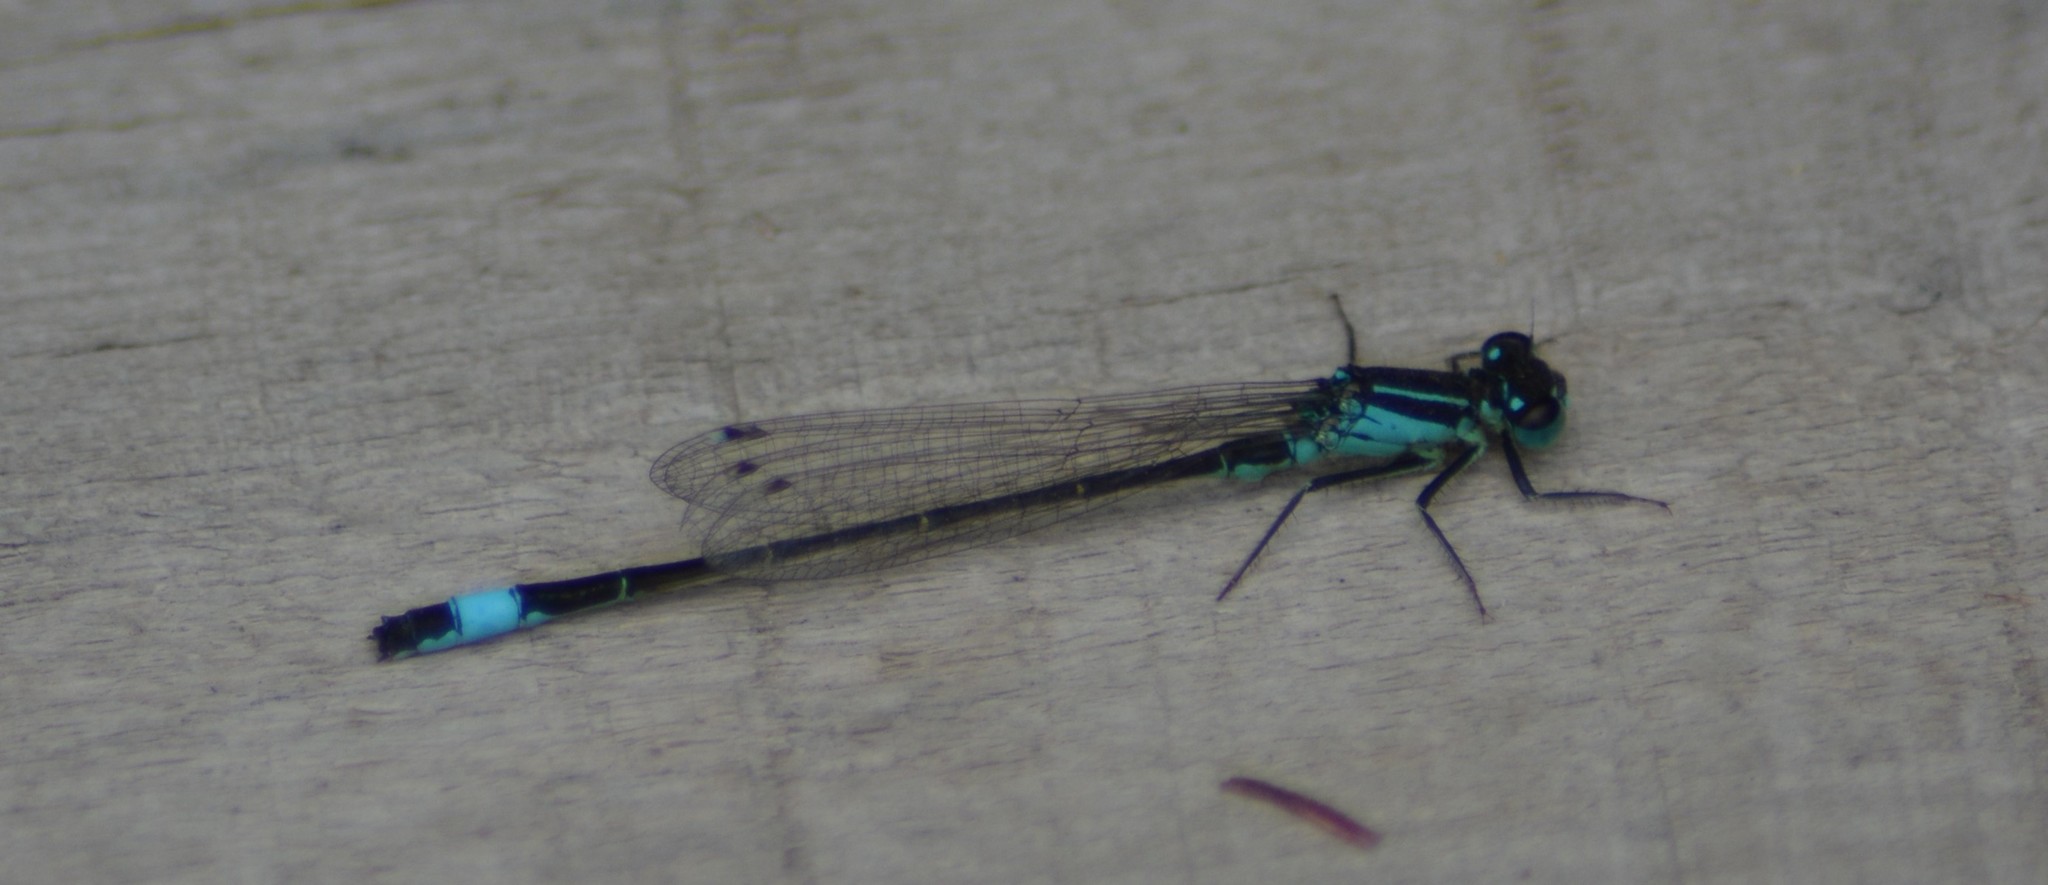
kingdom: Animalia
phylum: Arthropoda
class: Insecta
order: Odonata
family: Coenagrionidae
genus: Ischnura
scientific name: Ischnura elegans
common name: Blue-tailed damselfly
